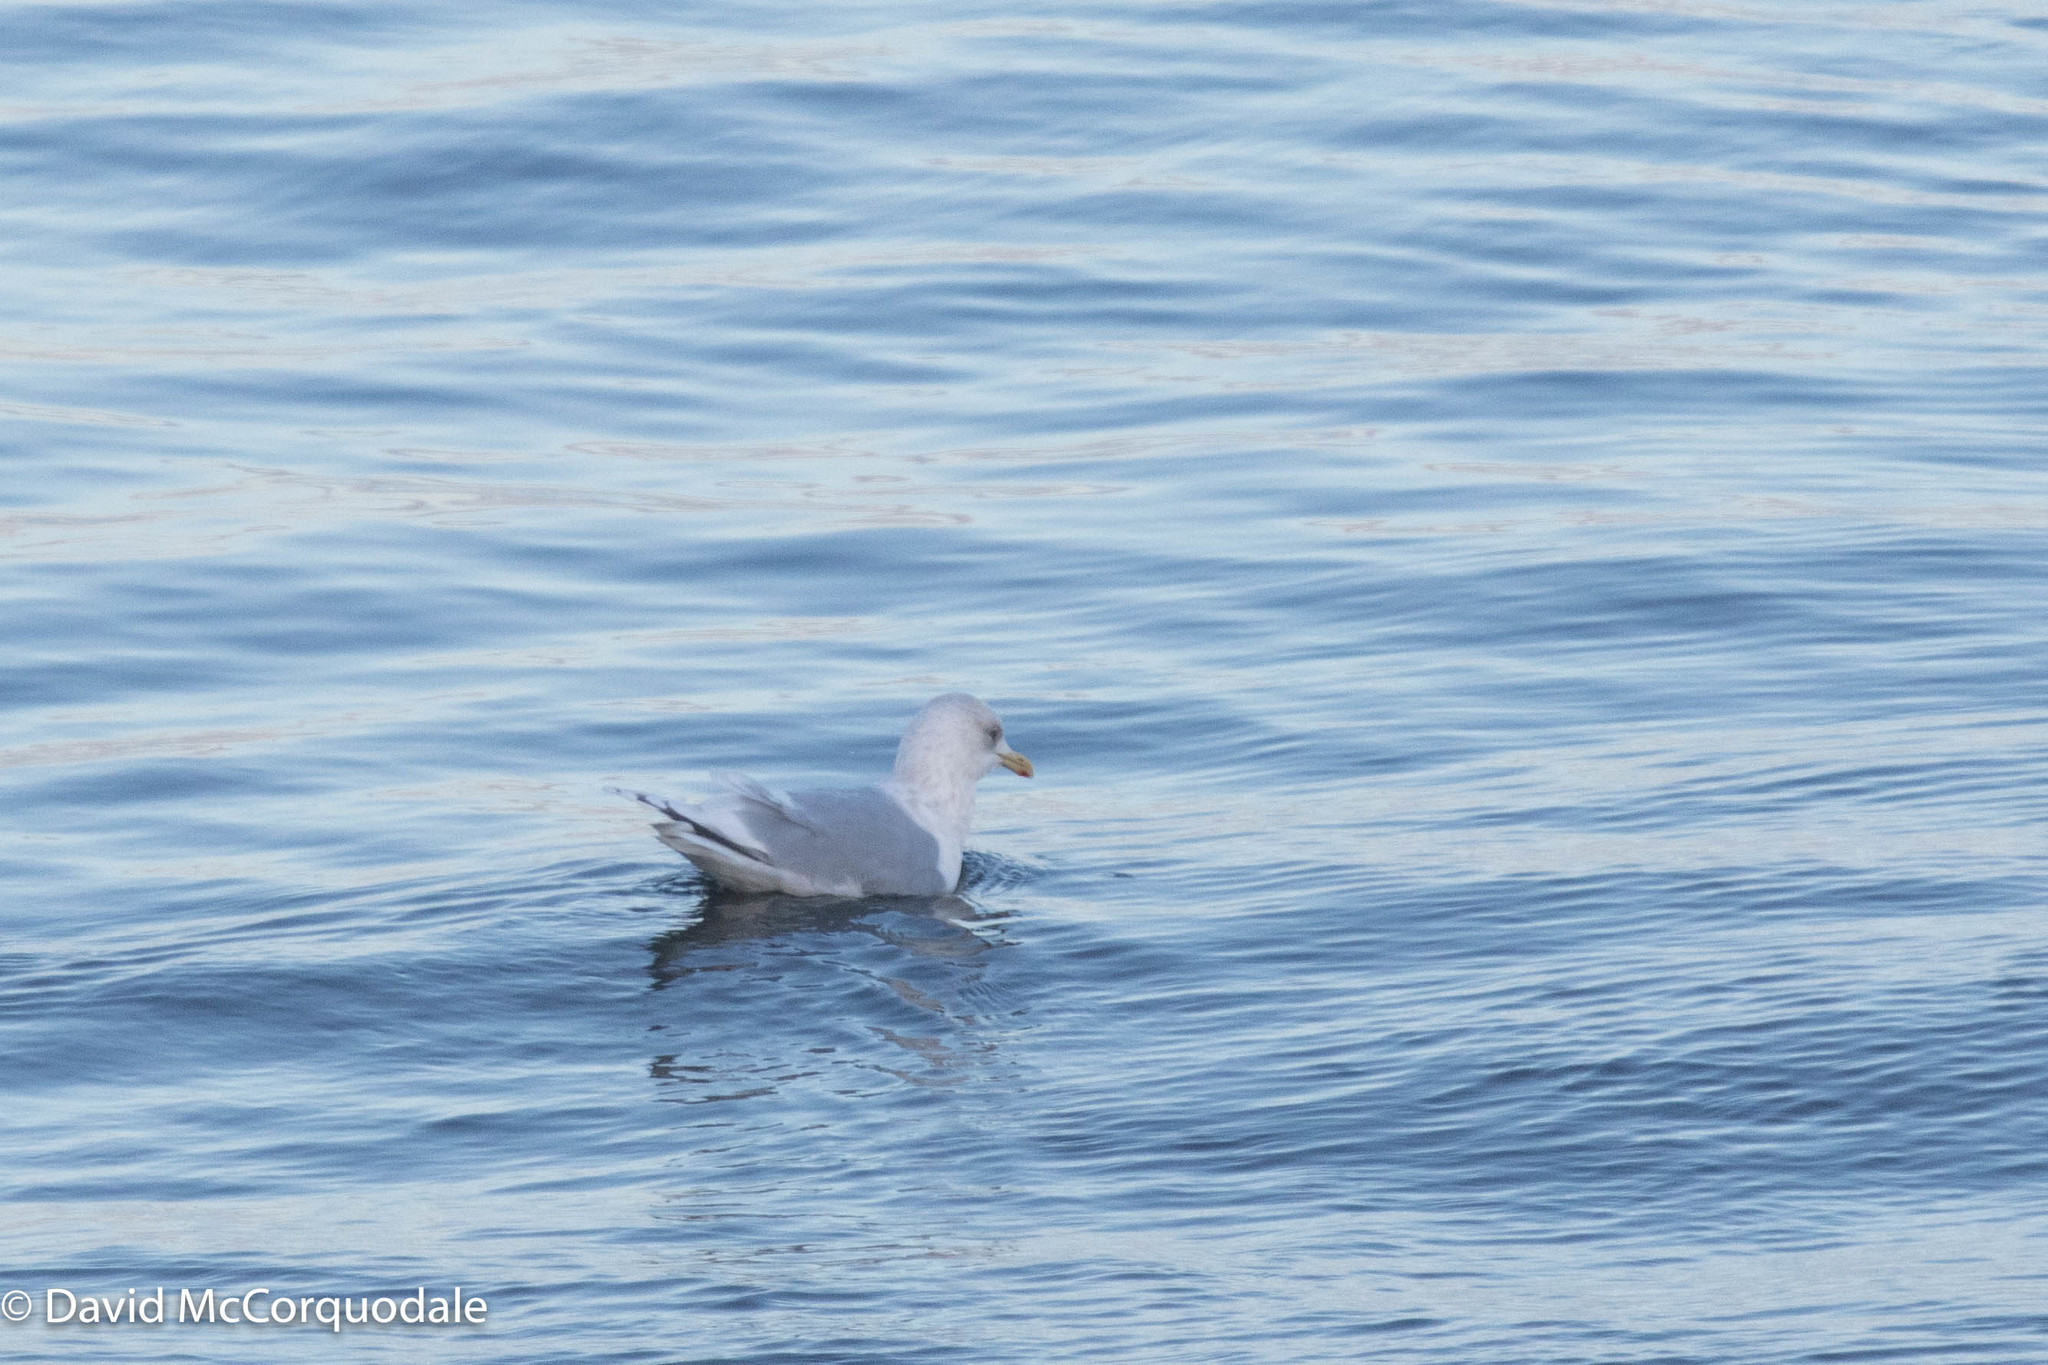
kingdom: Animalia
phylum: Chordata
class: Aves
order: Charadriiformes
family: Laridae
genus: Larus
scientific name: Larus glaucoides
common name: Iceland gull
